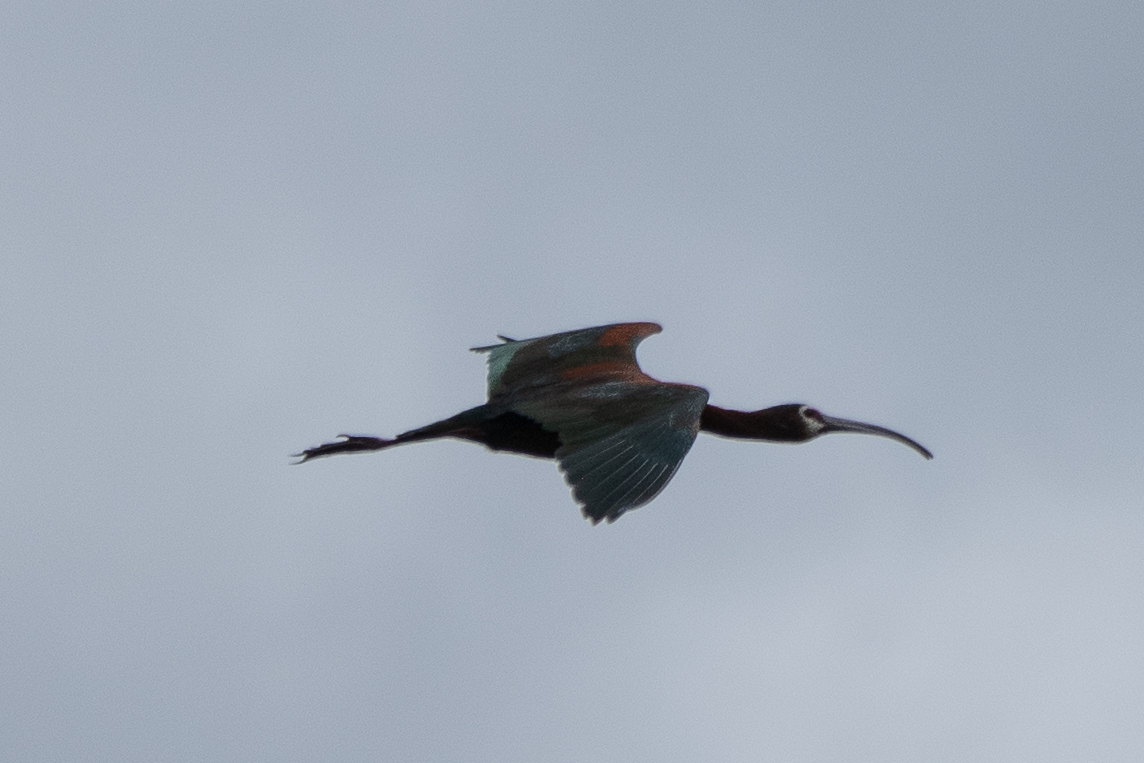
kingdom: Animalia
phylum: Chordata
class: Aves
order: Pelecaniformes
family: Threskiornithidae
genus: Plegadis
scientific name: Plegadis chihi
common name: White-faced ibis
